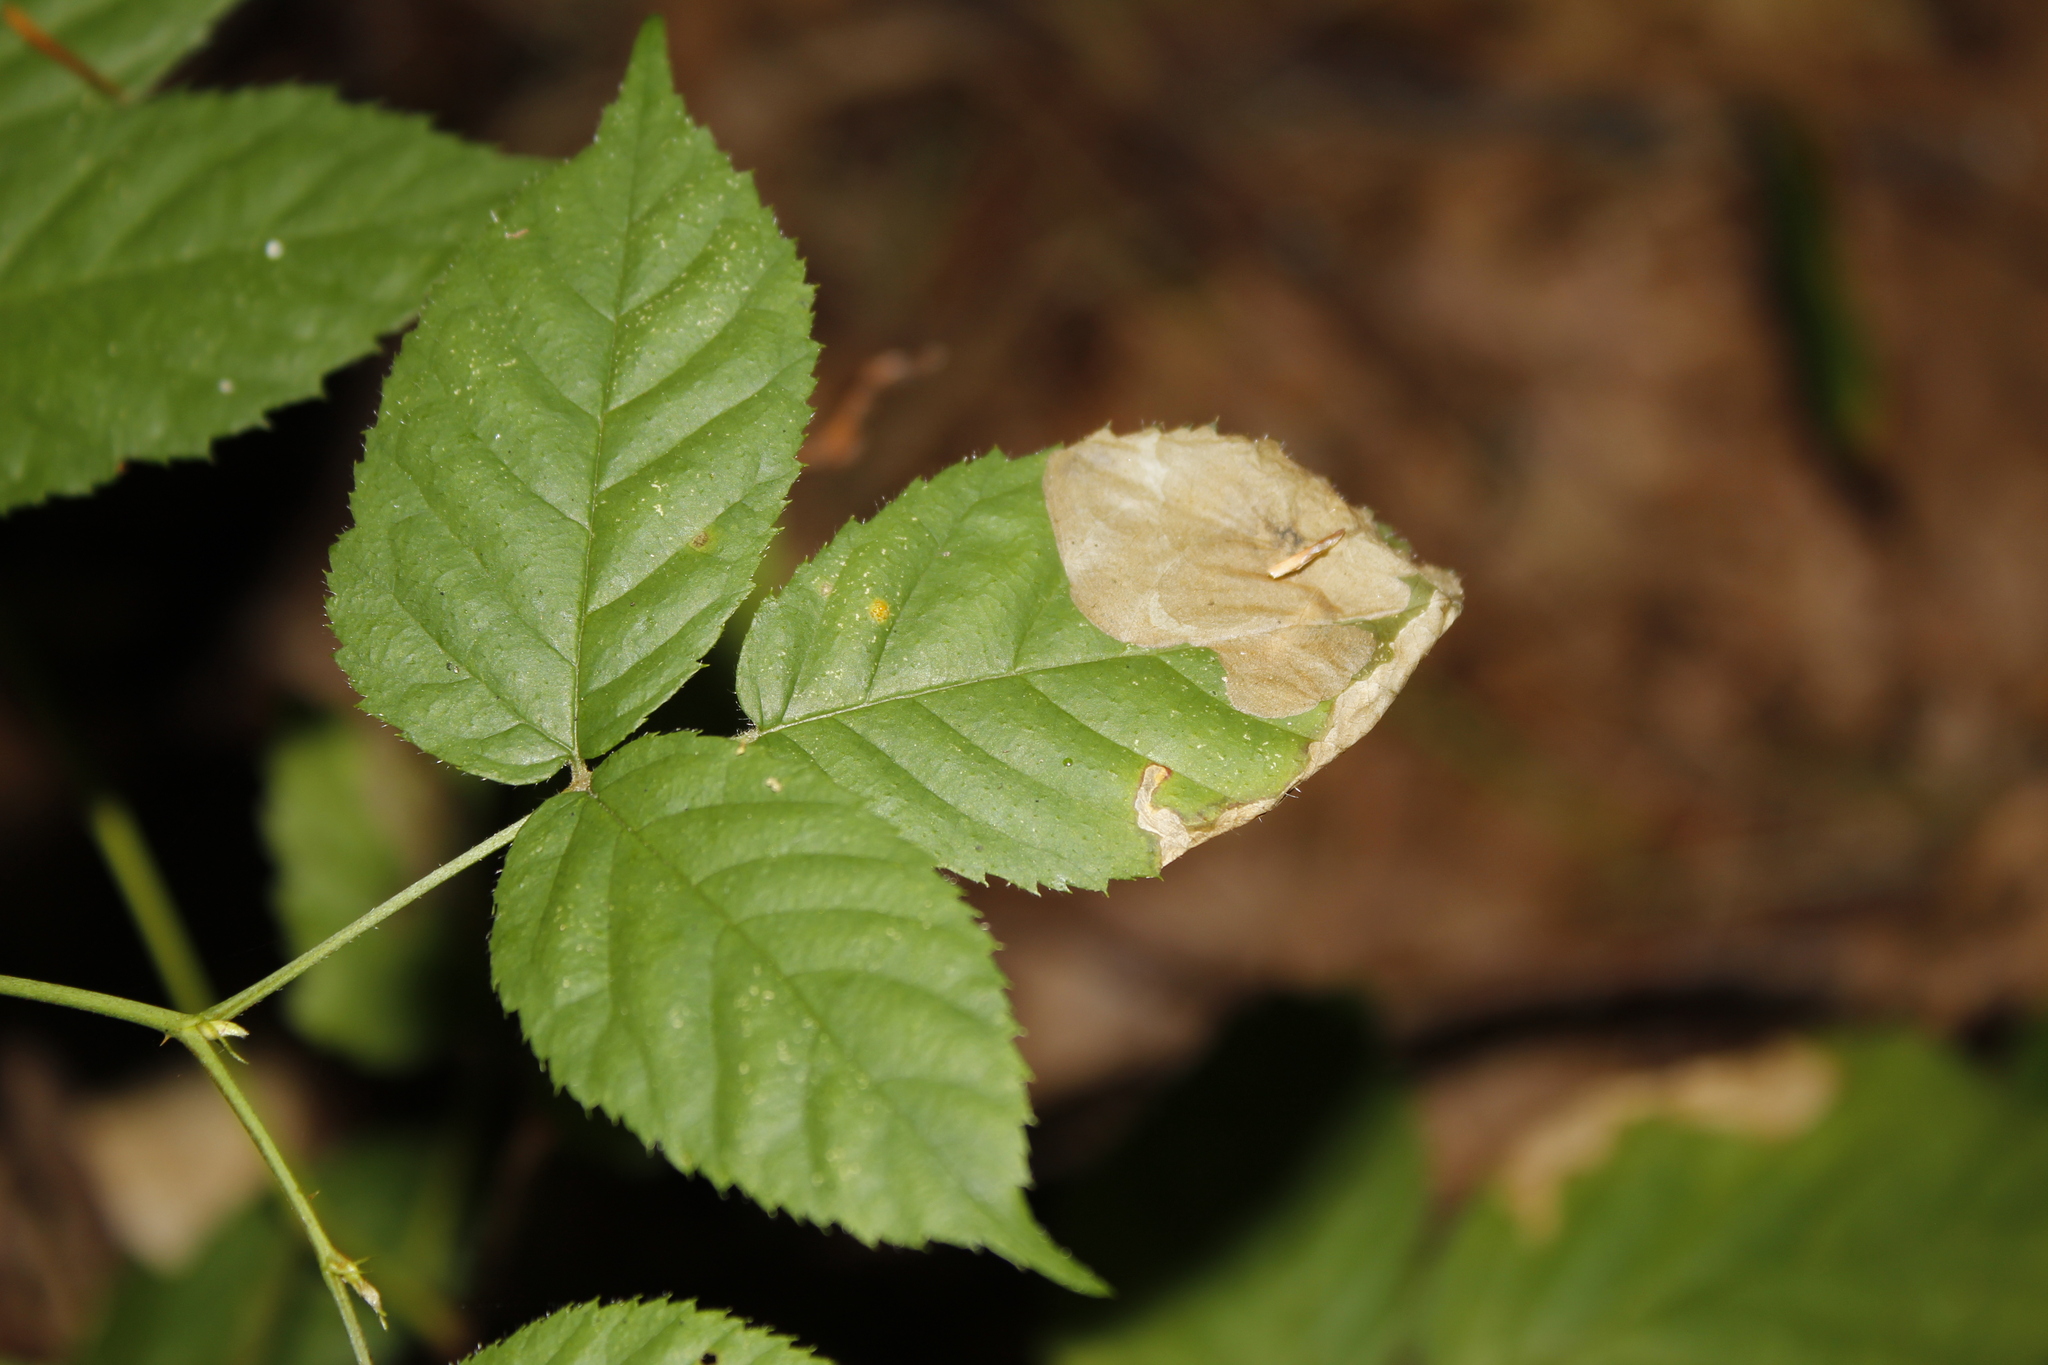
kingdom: Animalia
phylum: Arthropoda
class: Insecta
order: Hymenoptera
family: Tenthredinidae
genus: Metallus
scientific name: Metallus rohweri
